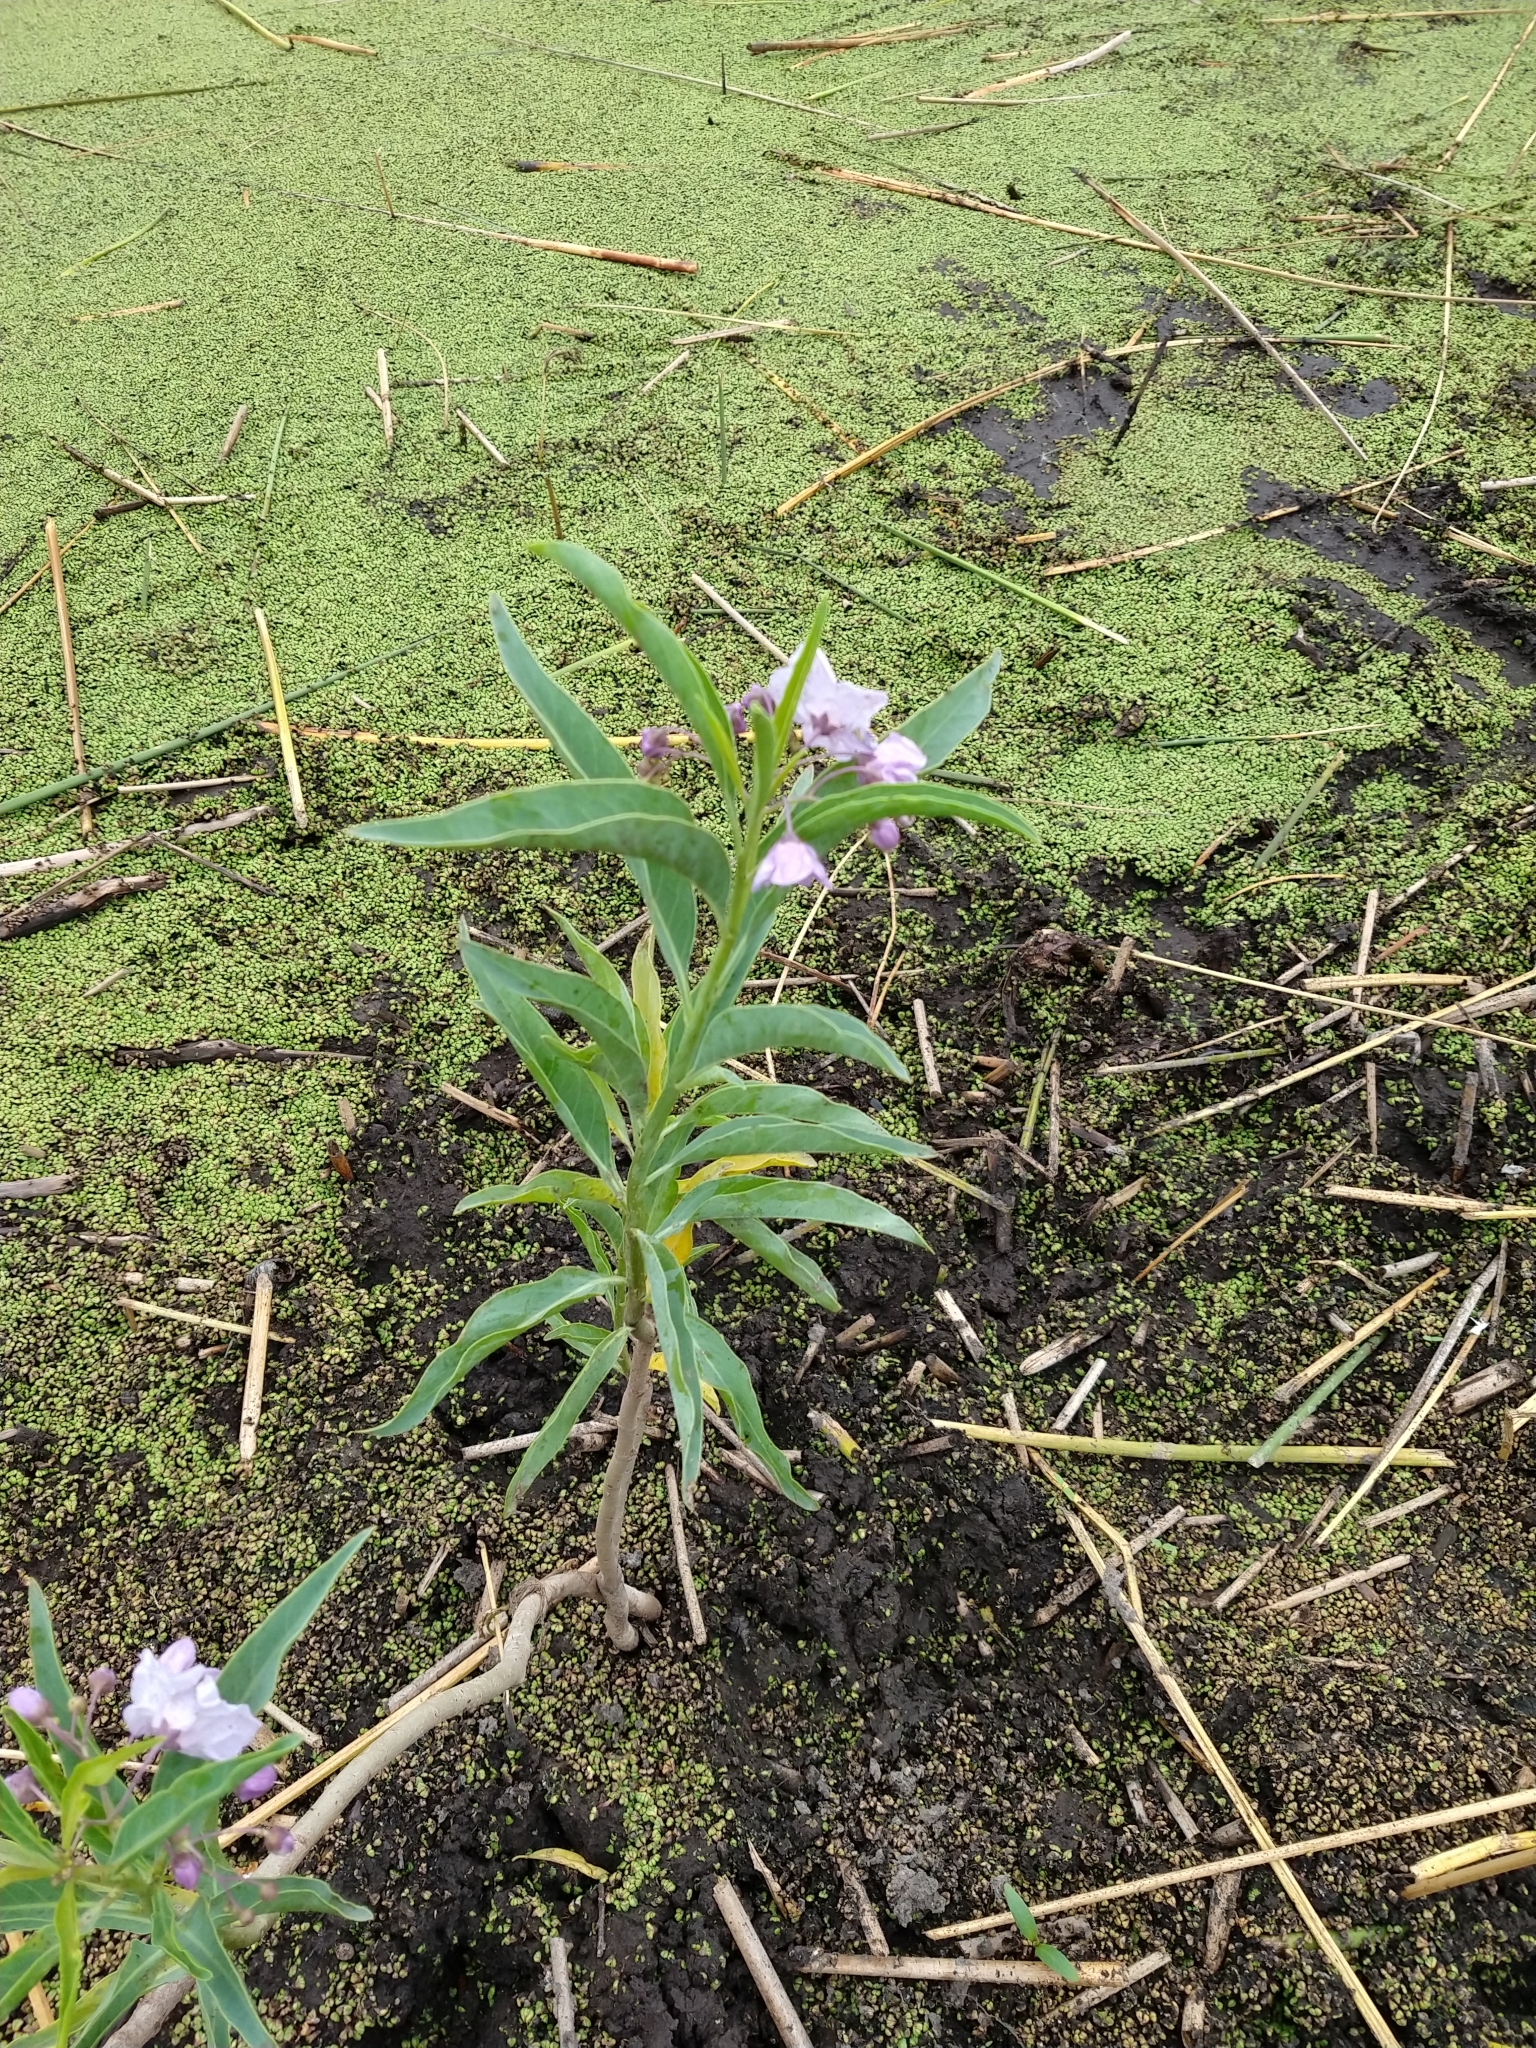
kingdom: Plantae
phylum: Tracheophyta
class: Magnoliopsida
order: Solanales
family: Solanaceae
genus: Solanum
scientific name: Solanum glaucophyllum
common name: Waxyleaf nightshade
